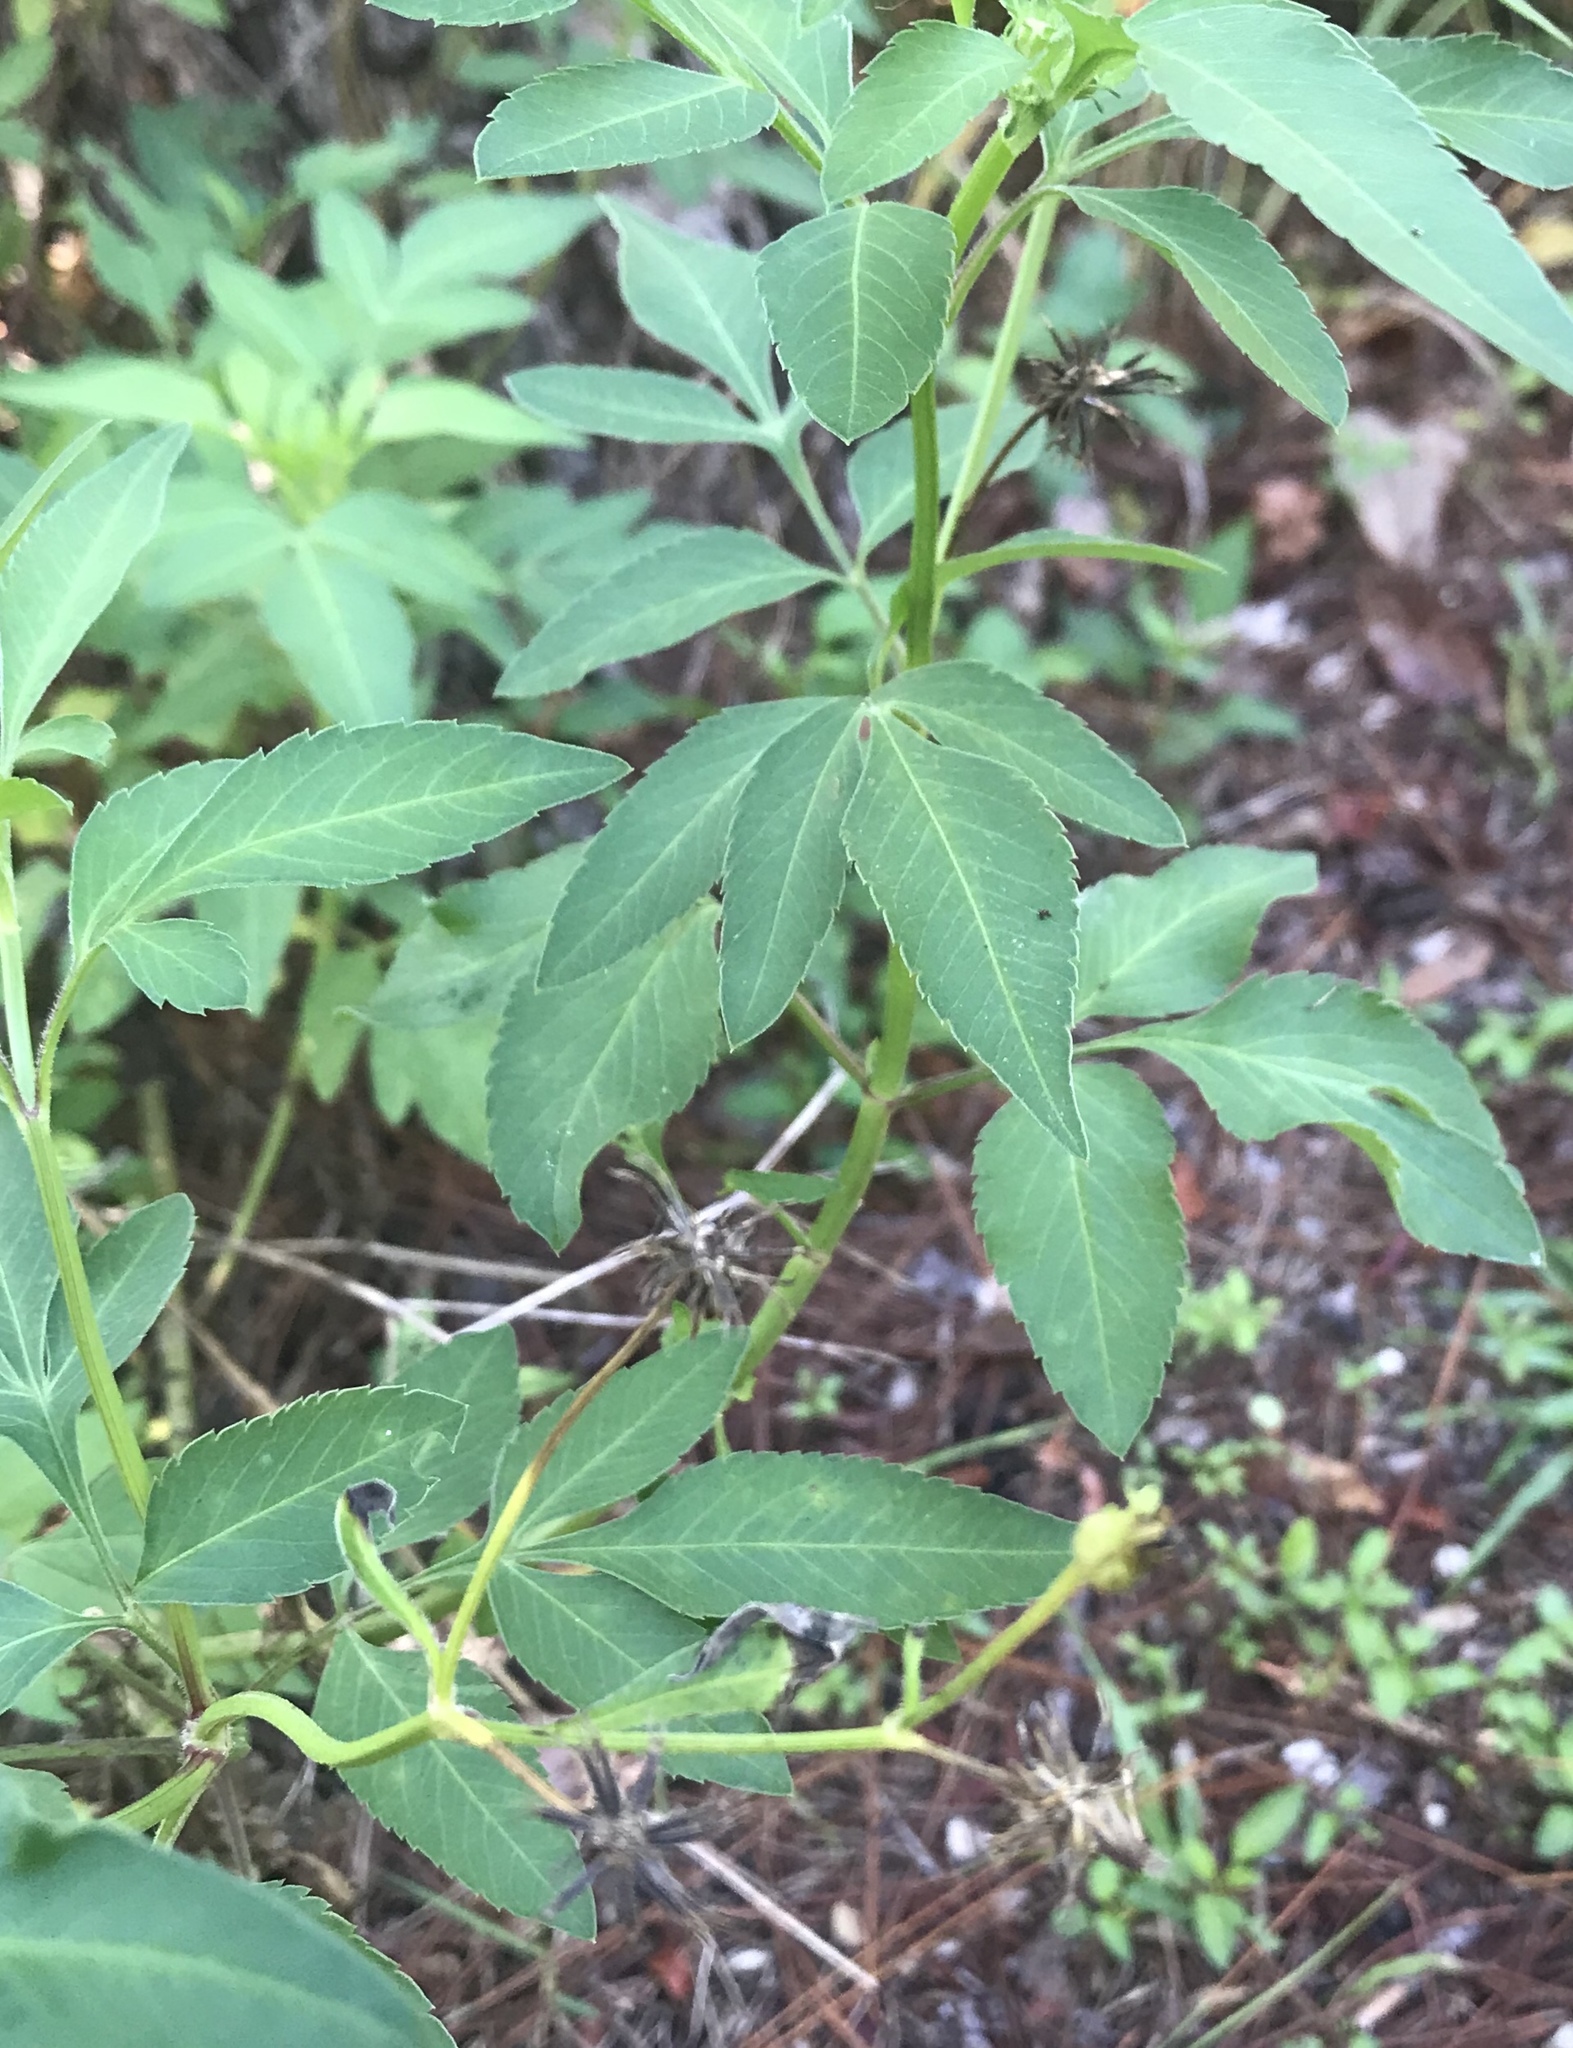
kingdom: Plantae
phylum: Tracheophyta
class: Magnoliopsida
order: Asterales
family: Asteraceae
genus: Bidens
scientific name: Bidens alba
